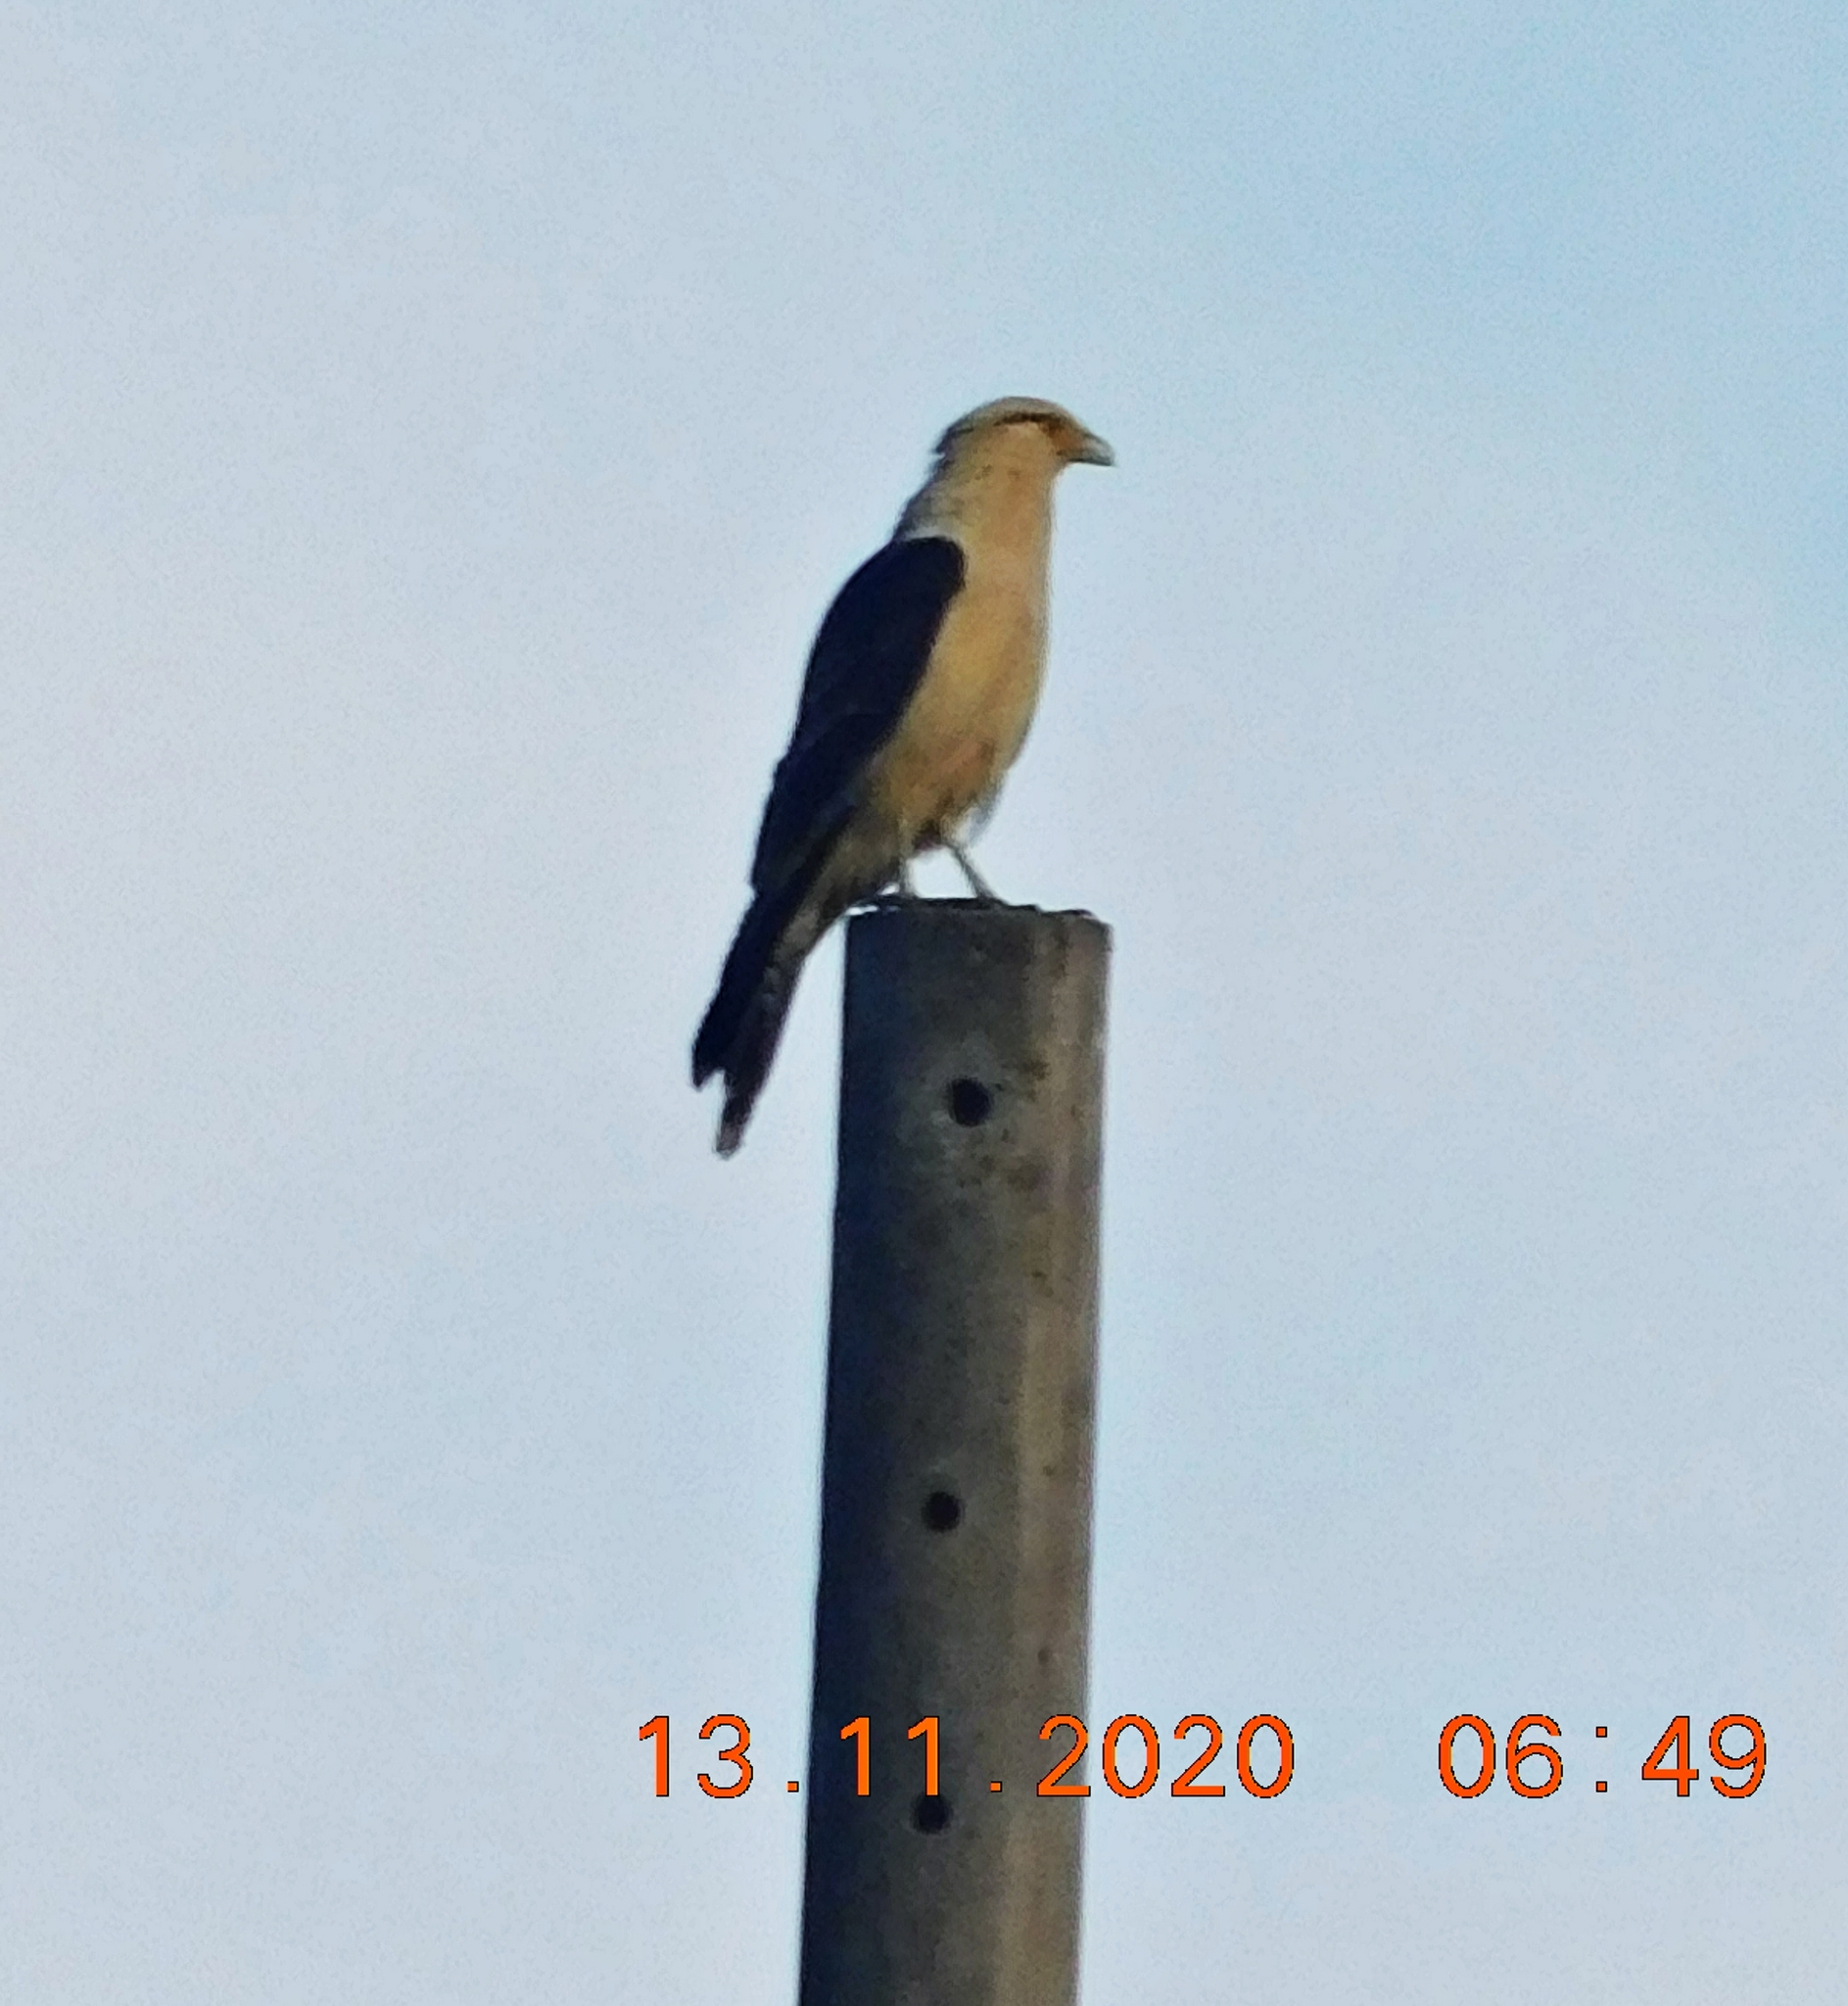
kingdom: Animalia
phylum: Chordata
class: Aves
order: Falconiformes
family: Falconidae
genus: Daptrius
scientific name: Daptrius
